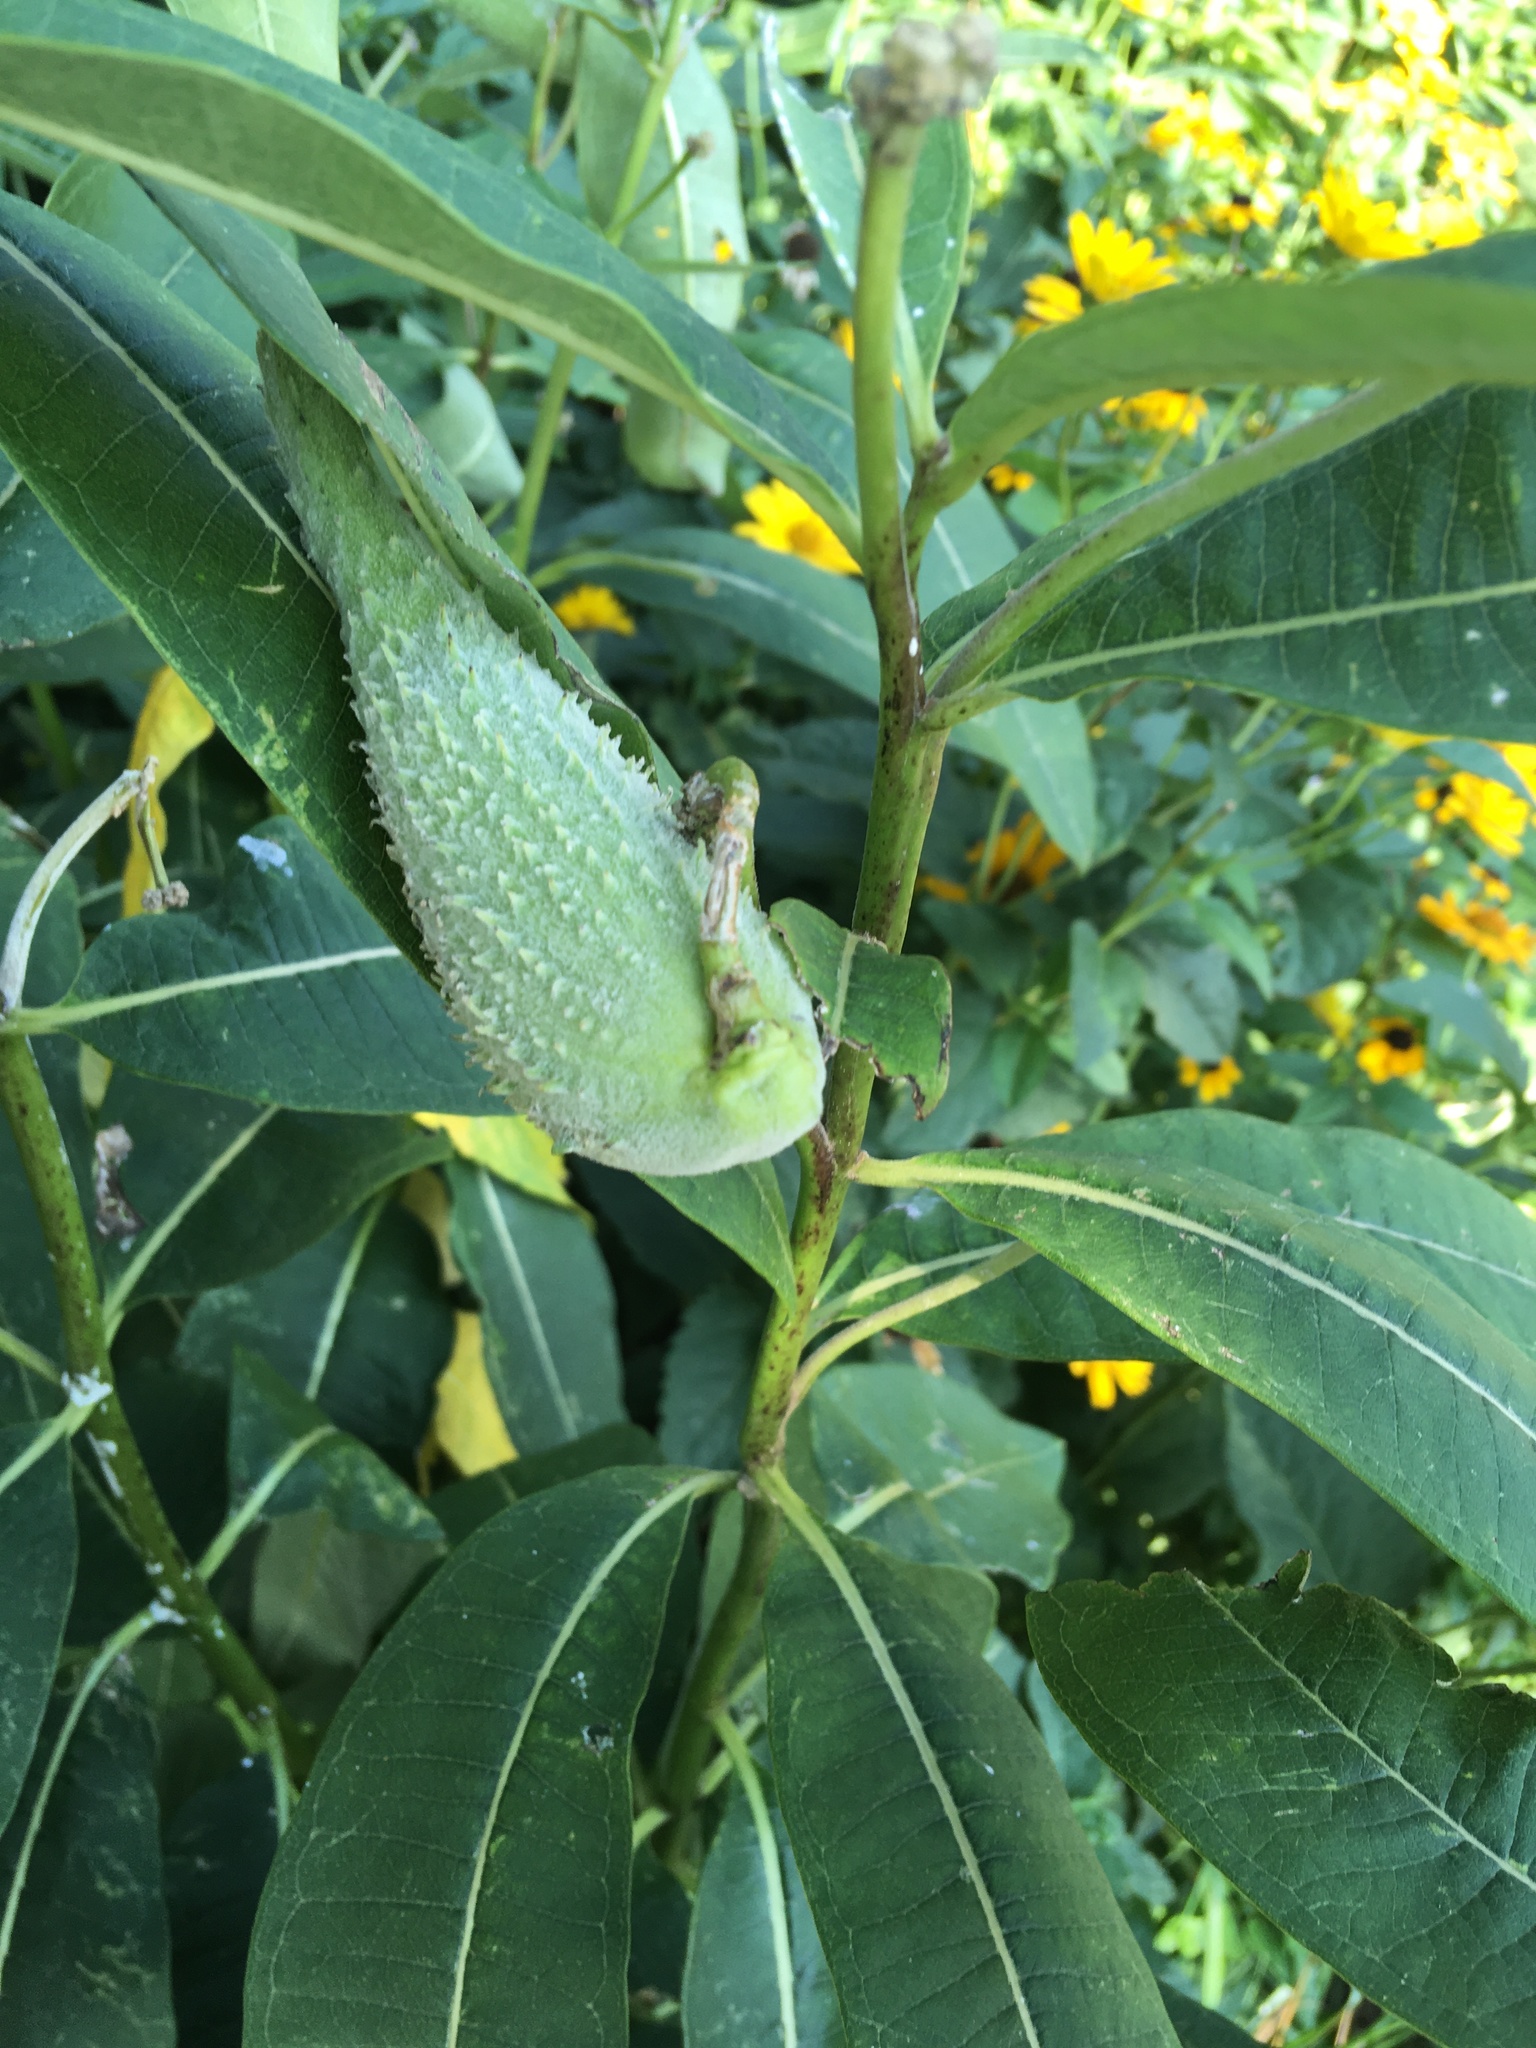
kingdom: Plantae
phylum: Tracheophyta
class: Magnoliopsida
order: Gentianales
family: Apocynaceae
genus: Asclepias
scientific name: Asclepias syriaca
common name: Common milkweed
